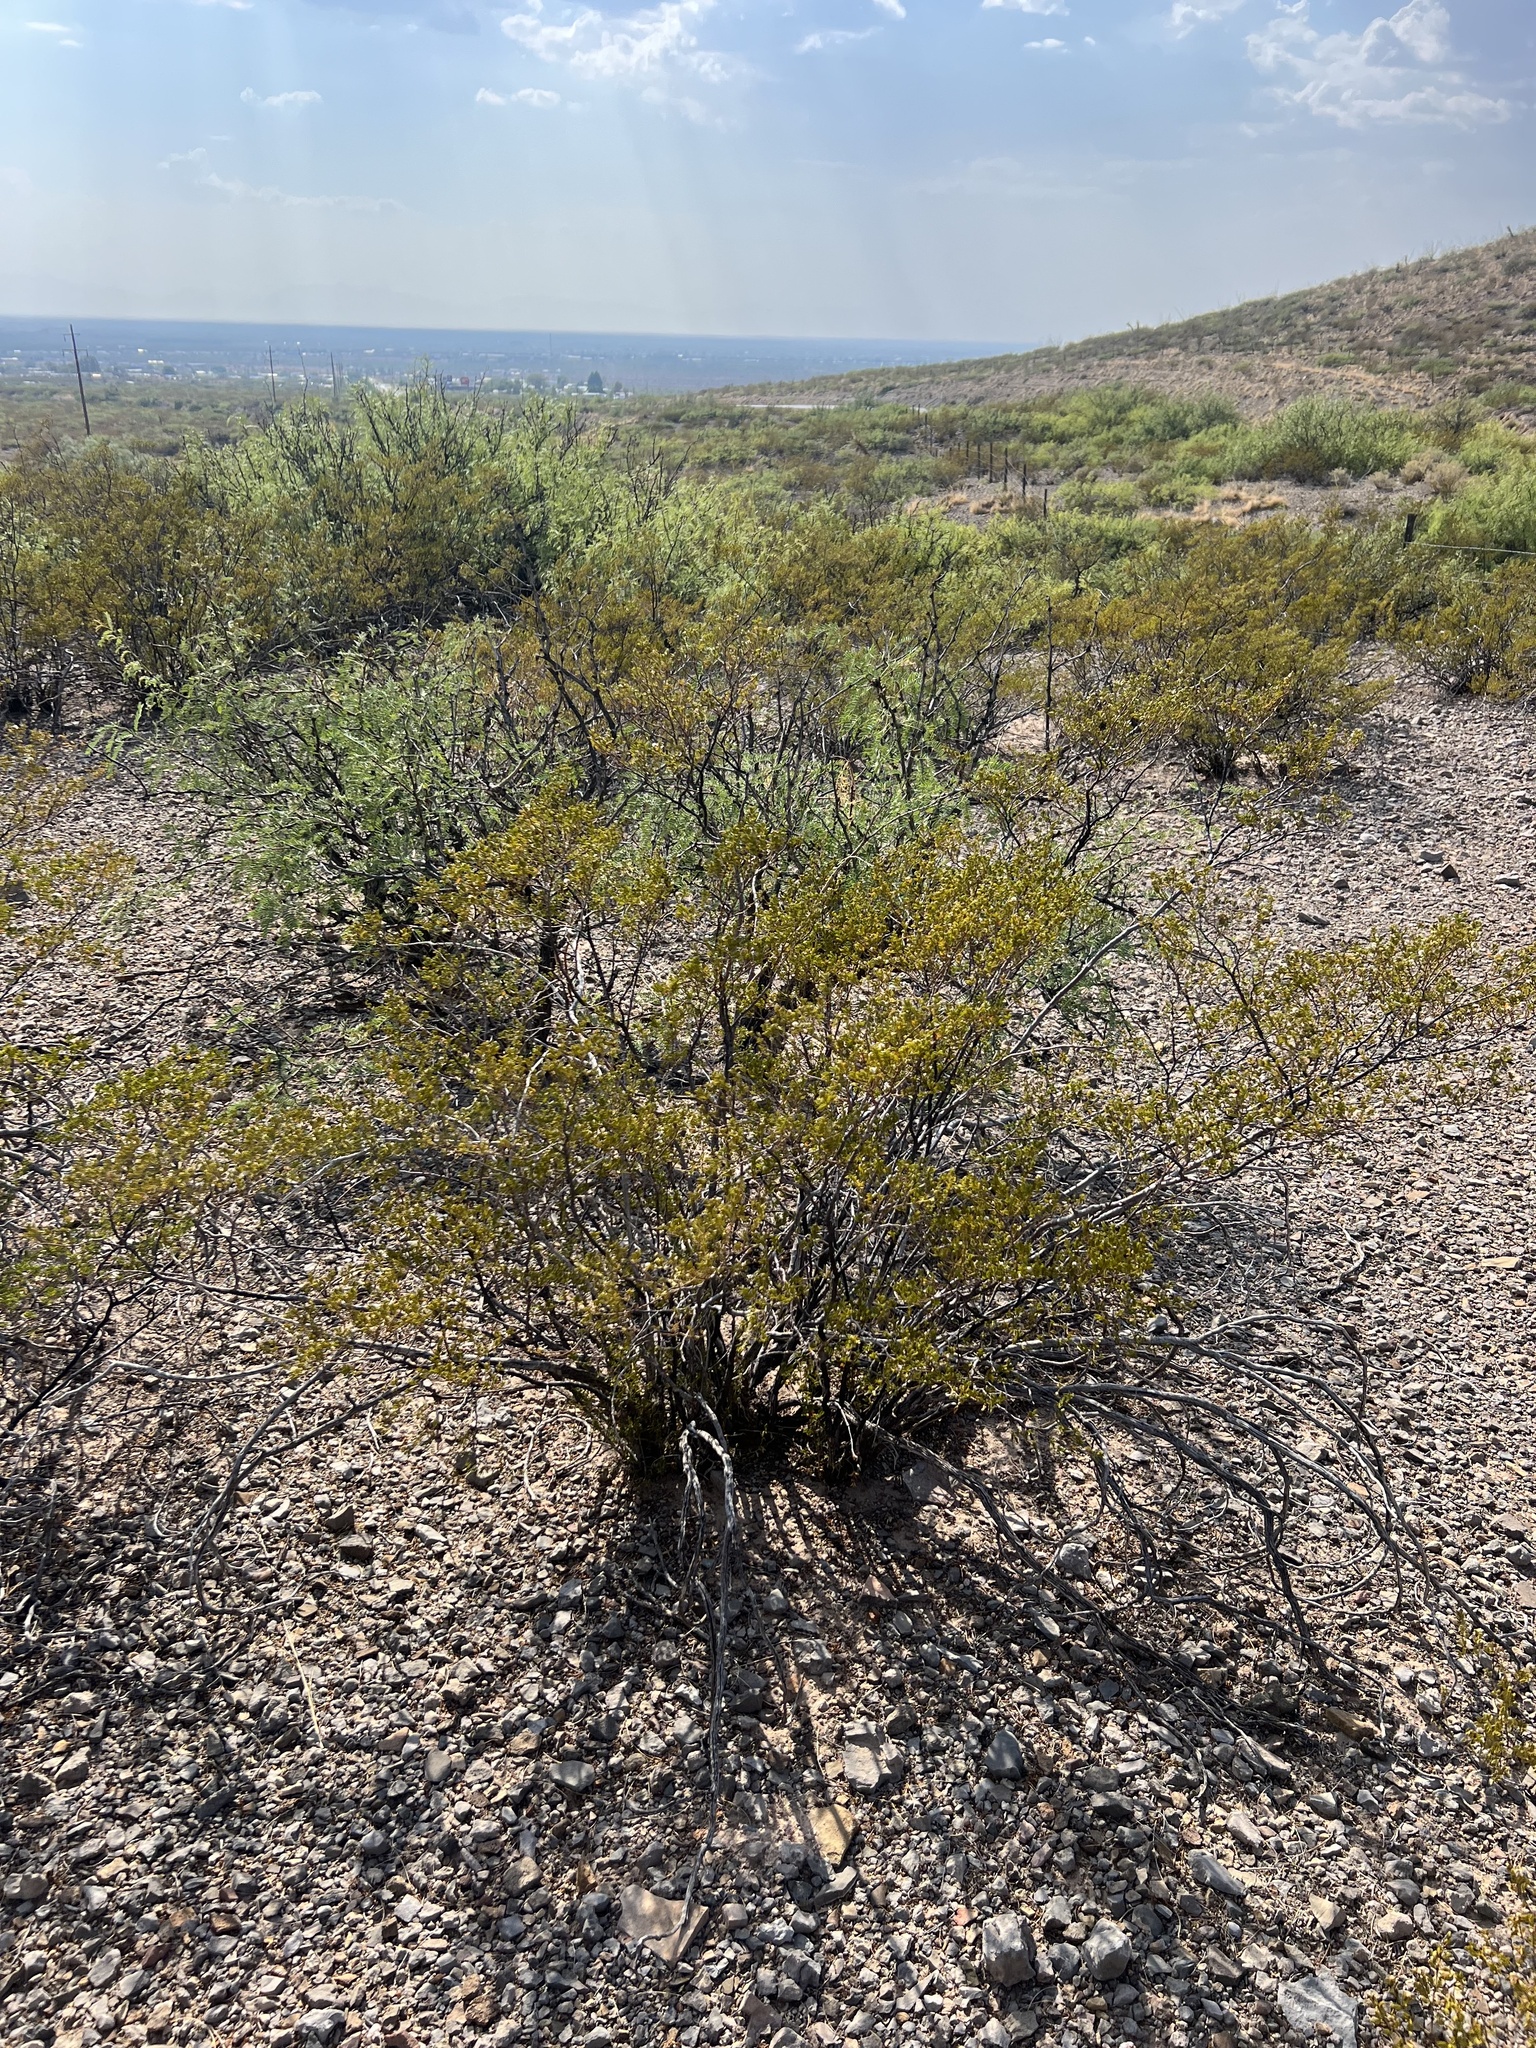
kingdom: Plantae
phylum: Tracheophyta
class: Magnoliopsida
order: Zygophyllales
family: Zygophyllaceae
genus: Larrea
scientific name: Larrea tridentata
